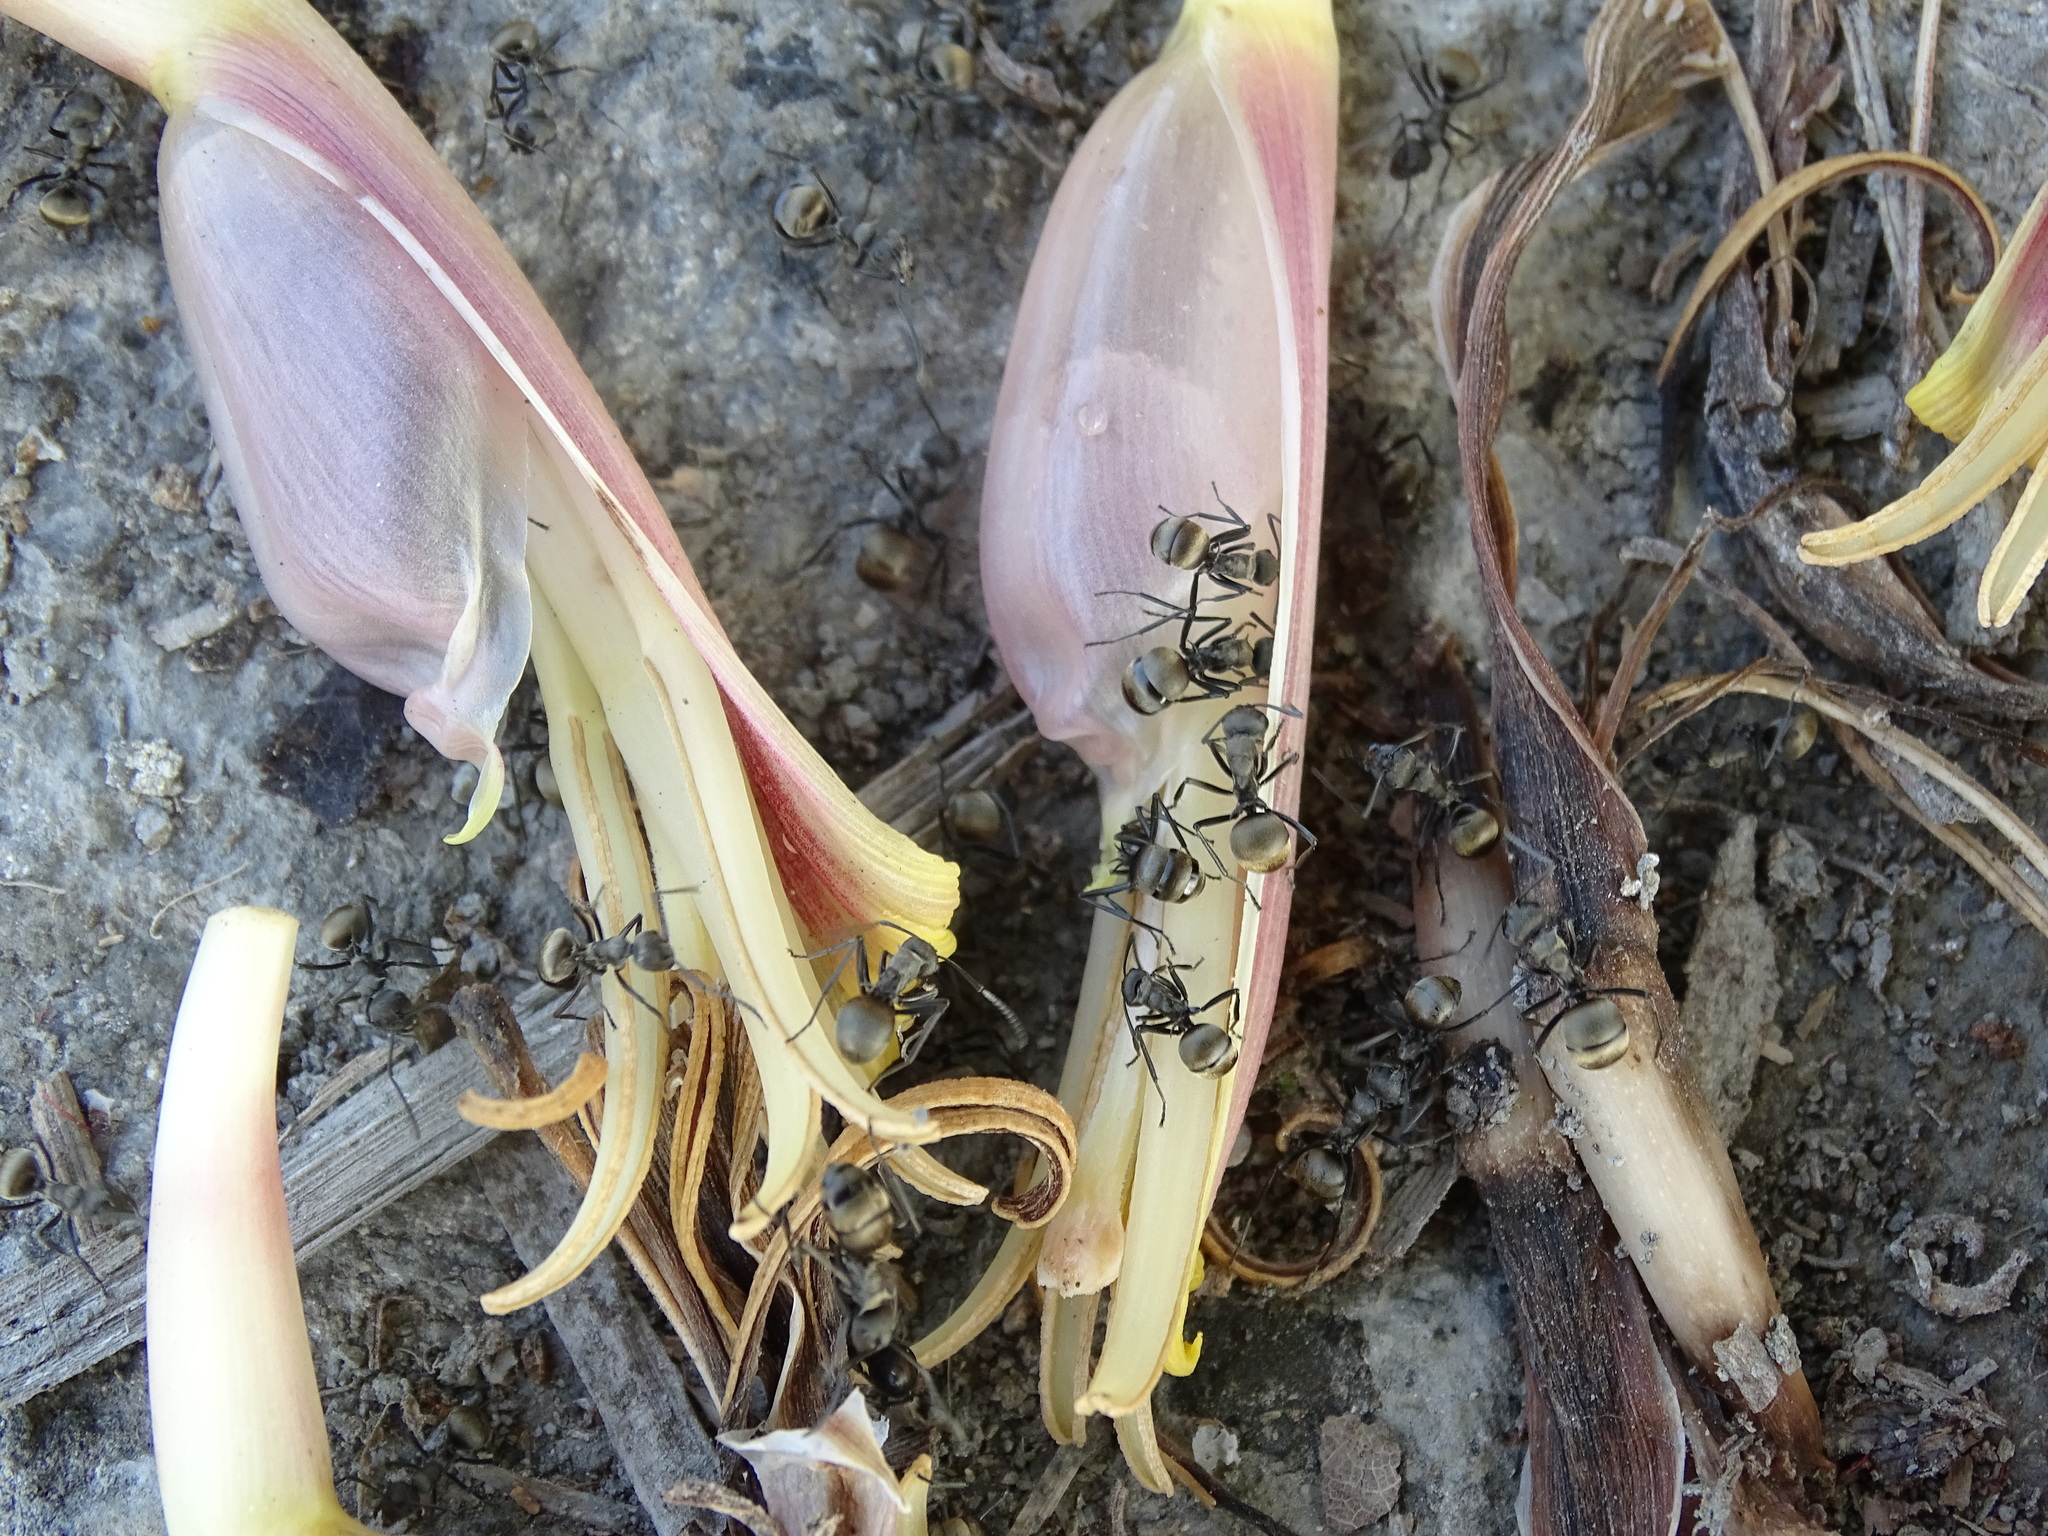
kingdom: Animalia
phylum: Arthropoda
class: Insecta
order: Hymenoptera
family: Formicidae
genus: Polyrhachis
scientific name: Polyrhachis dives
